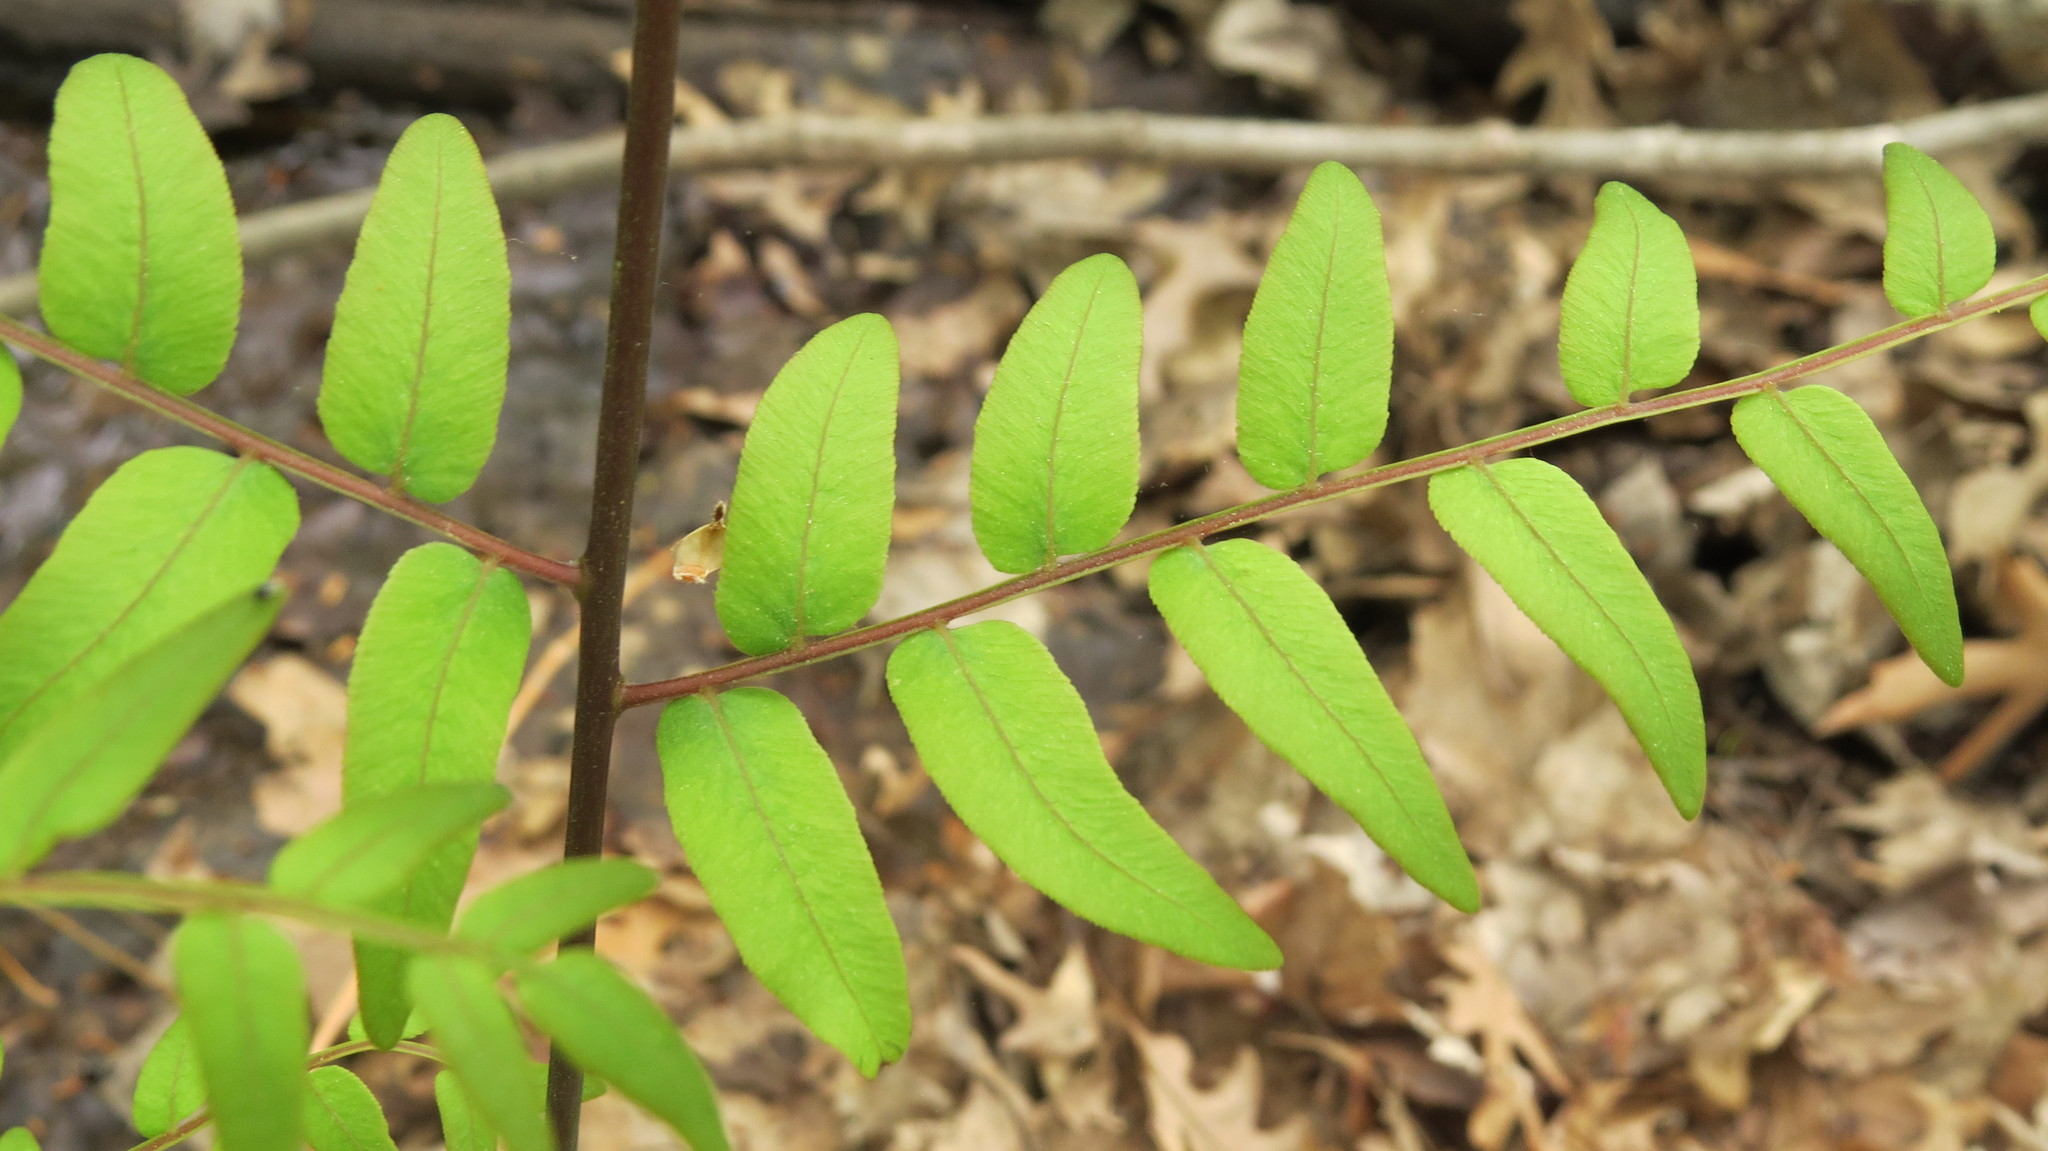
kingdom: Plantae
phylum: Tracheophyta
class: Polypodiopsida
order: Osmundales
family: Osmundaceae
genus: Osmunda
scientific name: Osmunda spectabilis
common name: American royal fern
